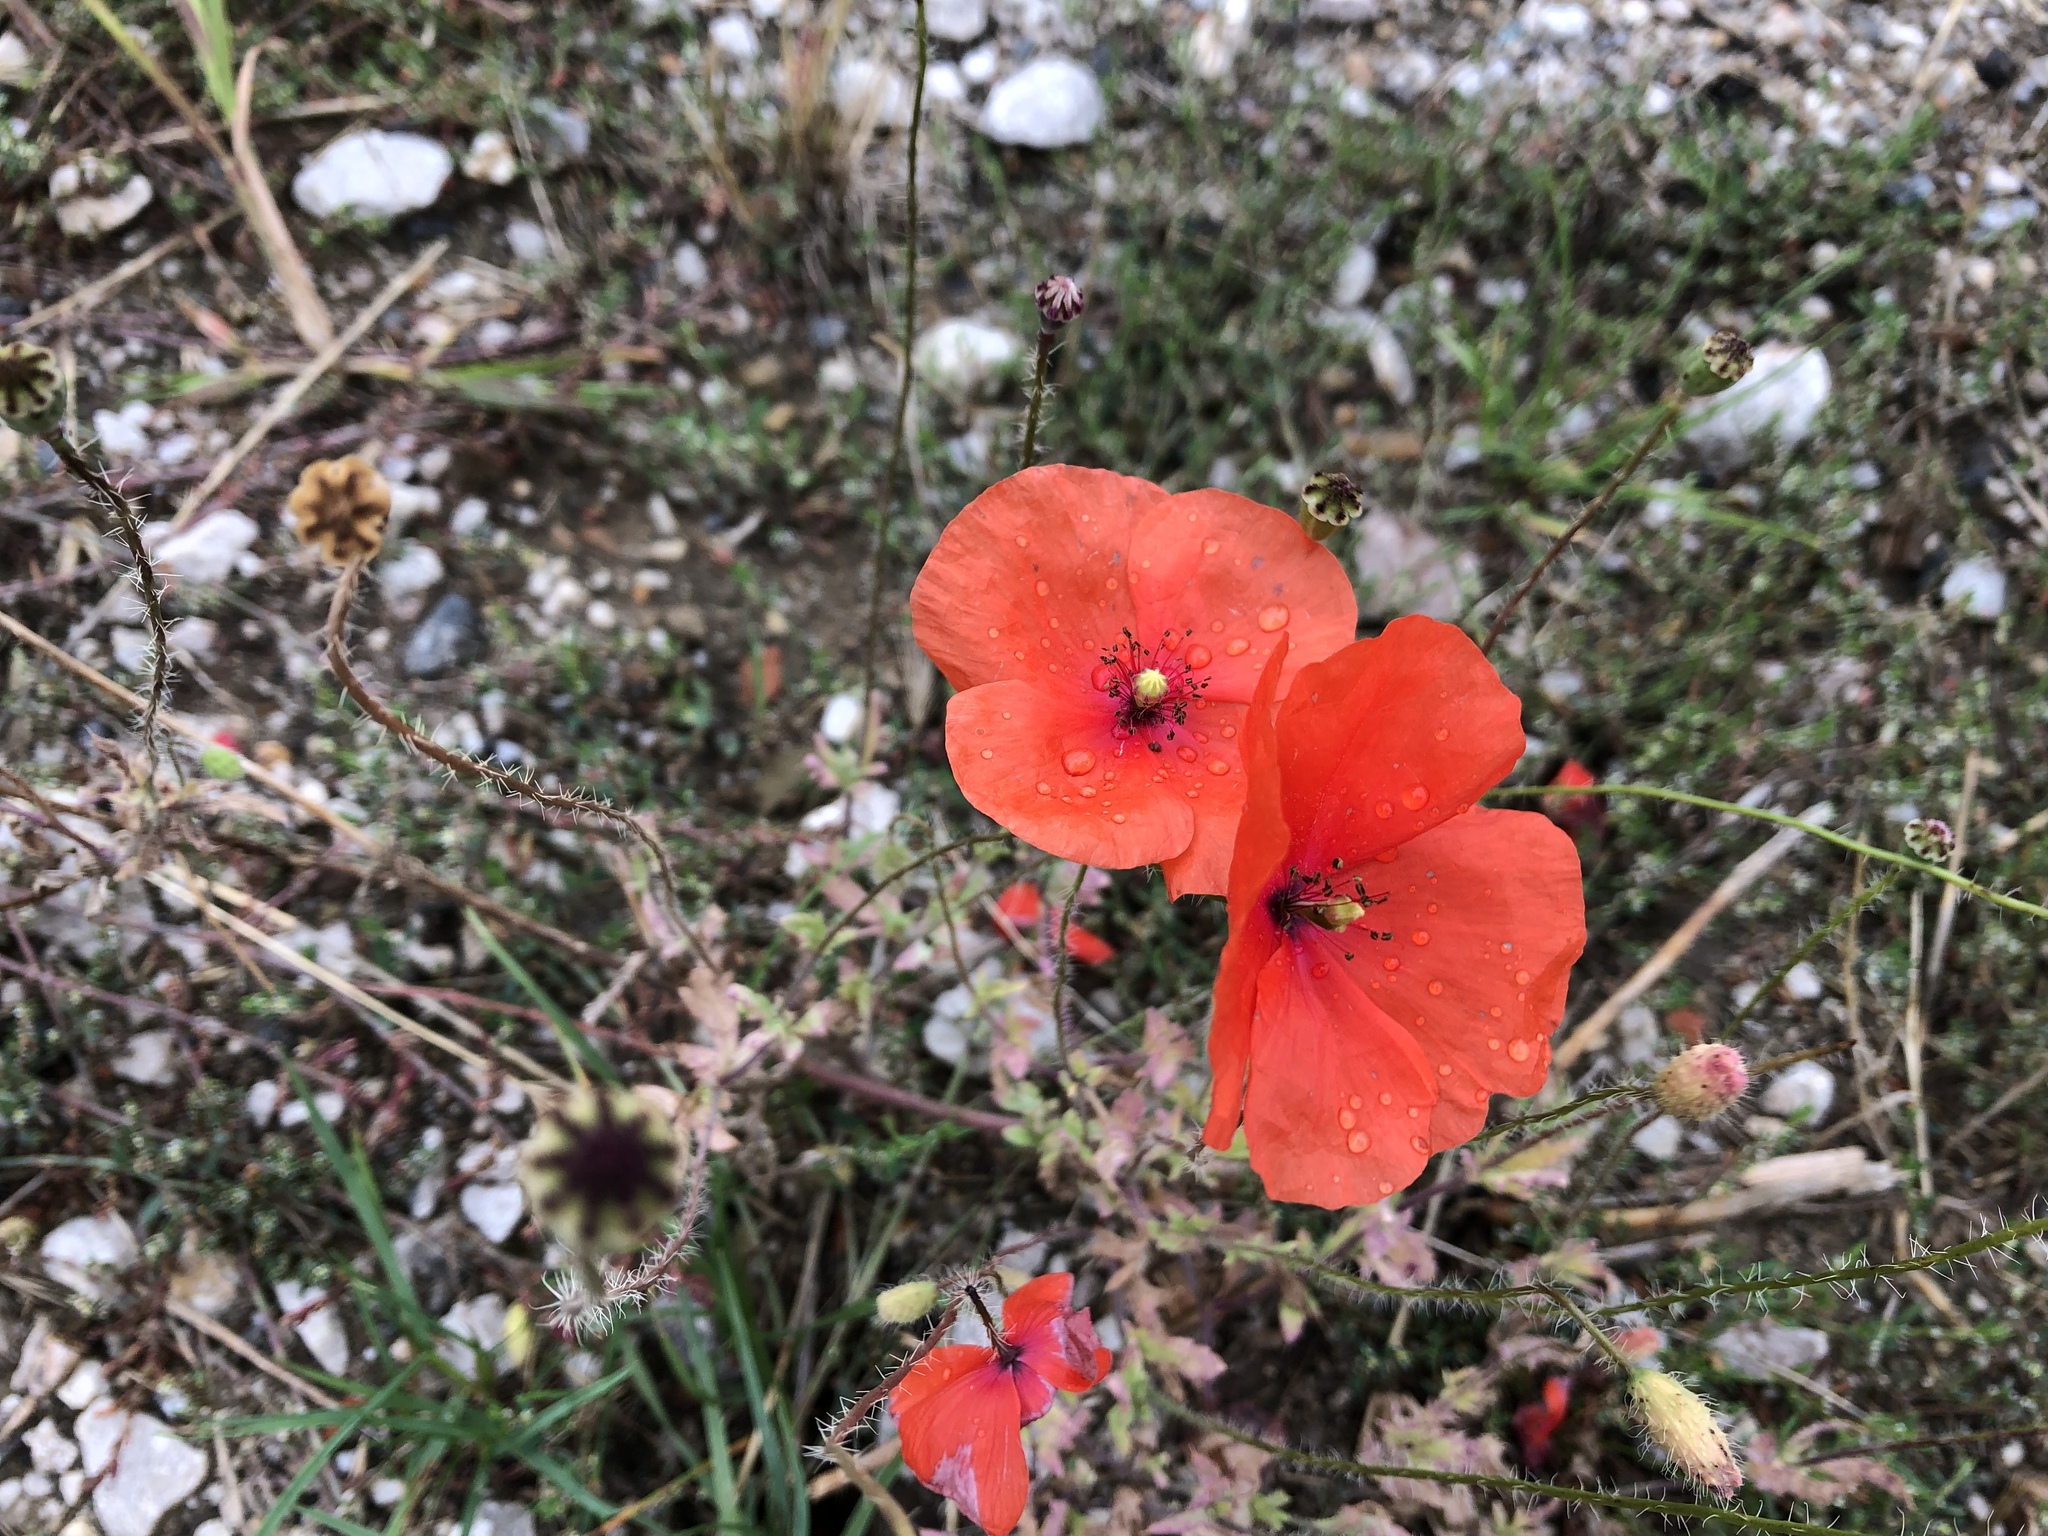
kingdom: Plantae
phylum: Tracheophyta
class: Magnoliopsida
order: Ranunculales
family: Papaveraceae
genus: Papaver
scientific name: Papaver rhoeas
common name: Corn poppy
